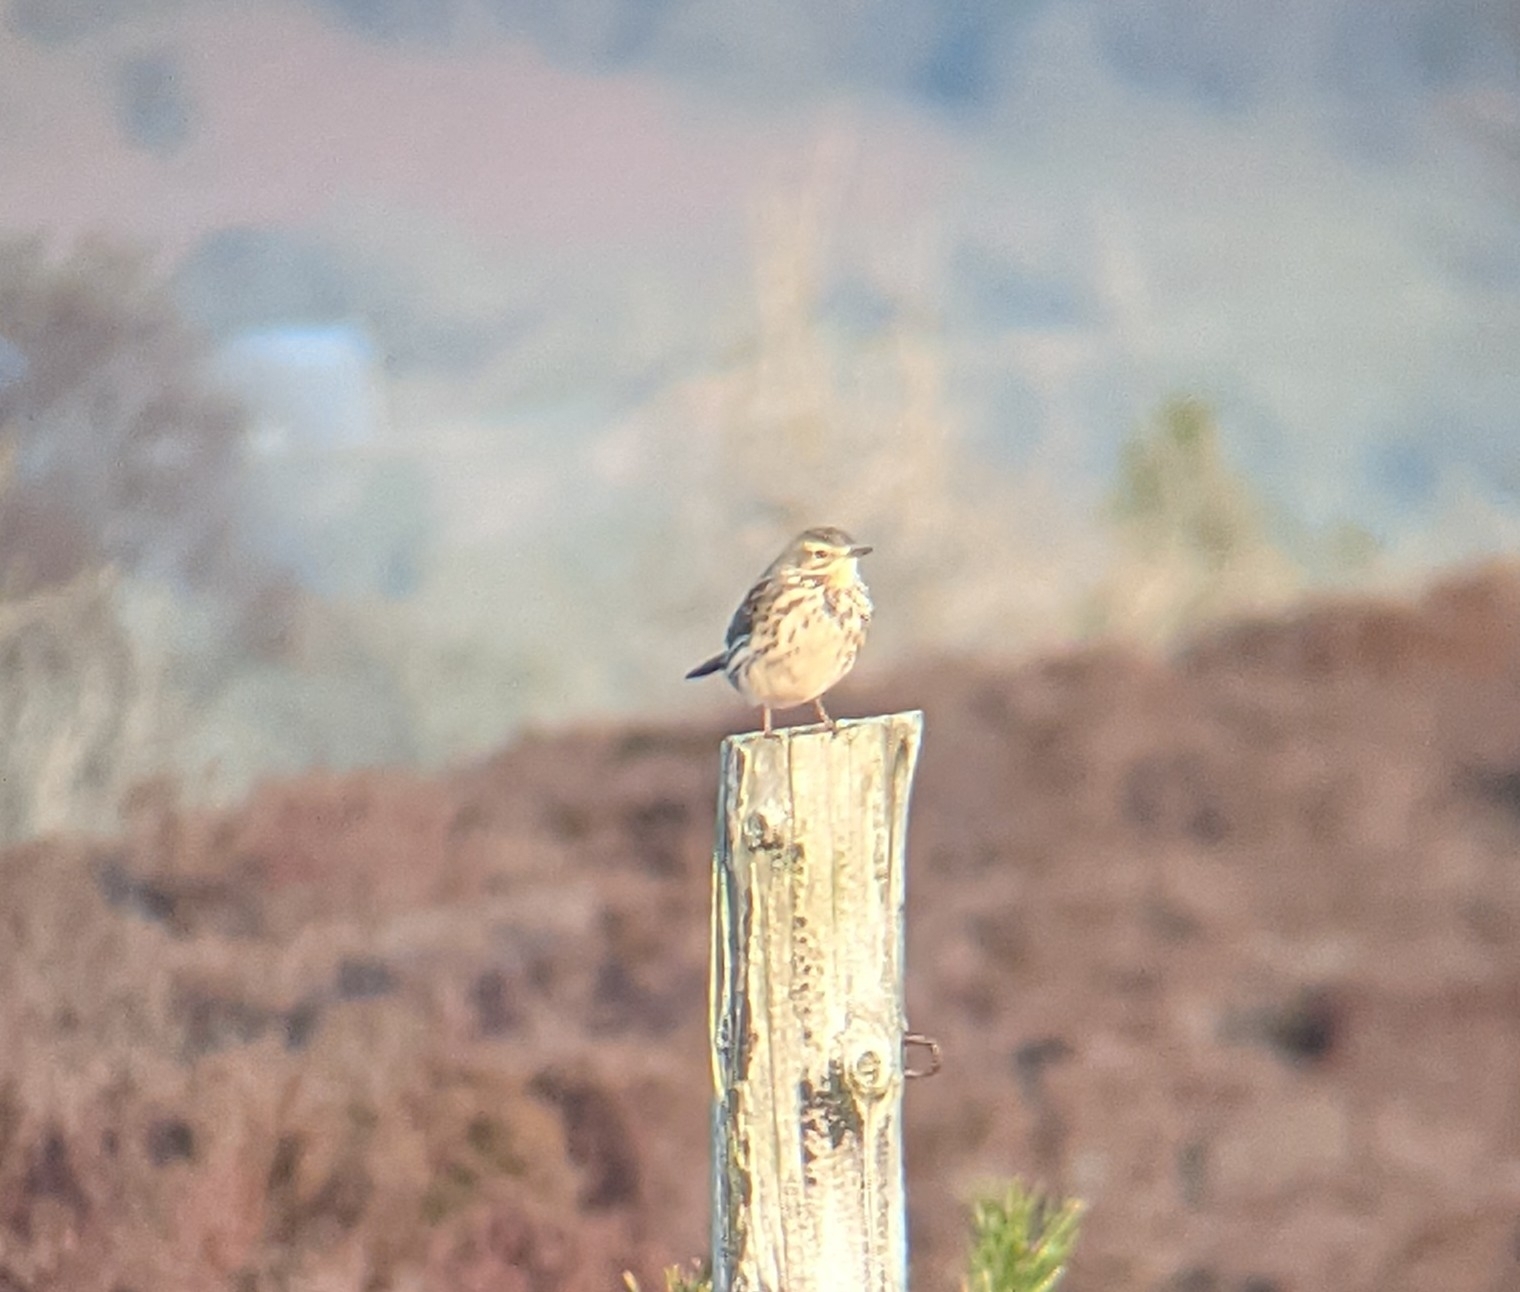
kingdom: Animalia
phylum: Chordata
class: Aves
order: Passeriformes
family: Motacillidae
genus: Anthus
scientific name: Anthus pratensis
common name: Meadow pipit
